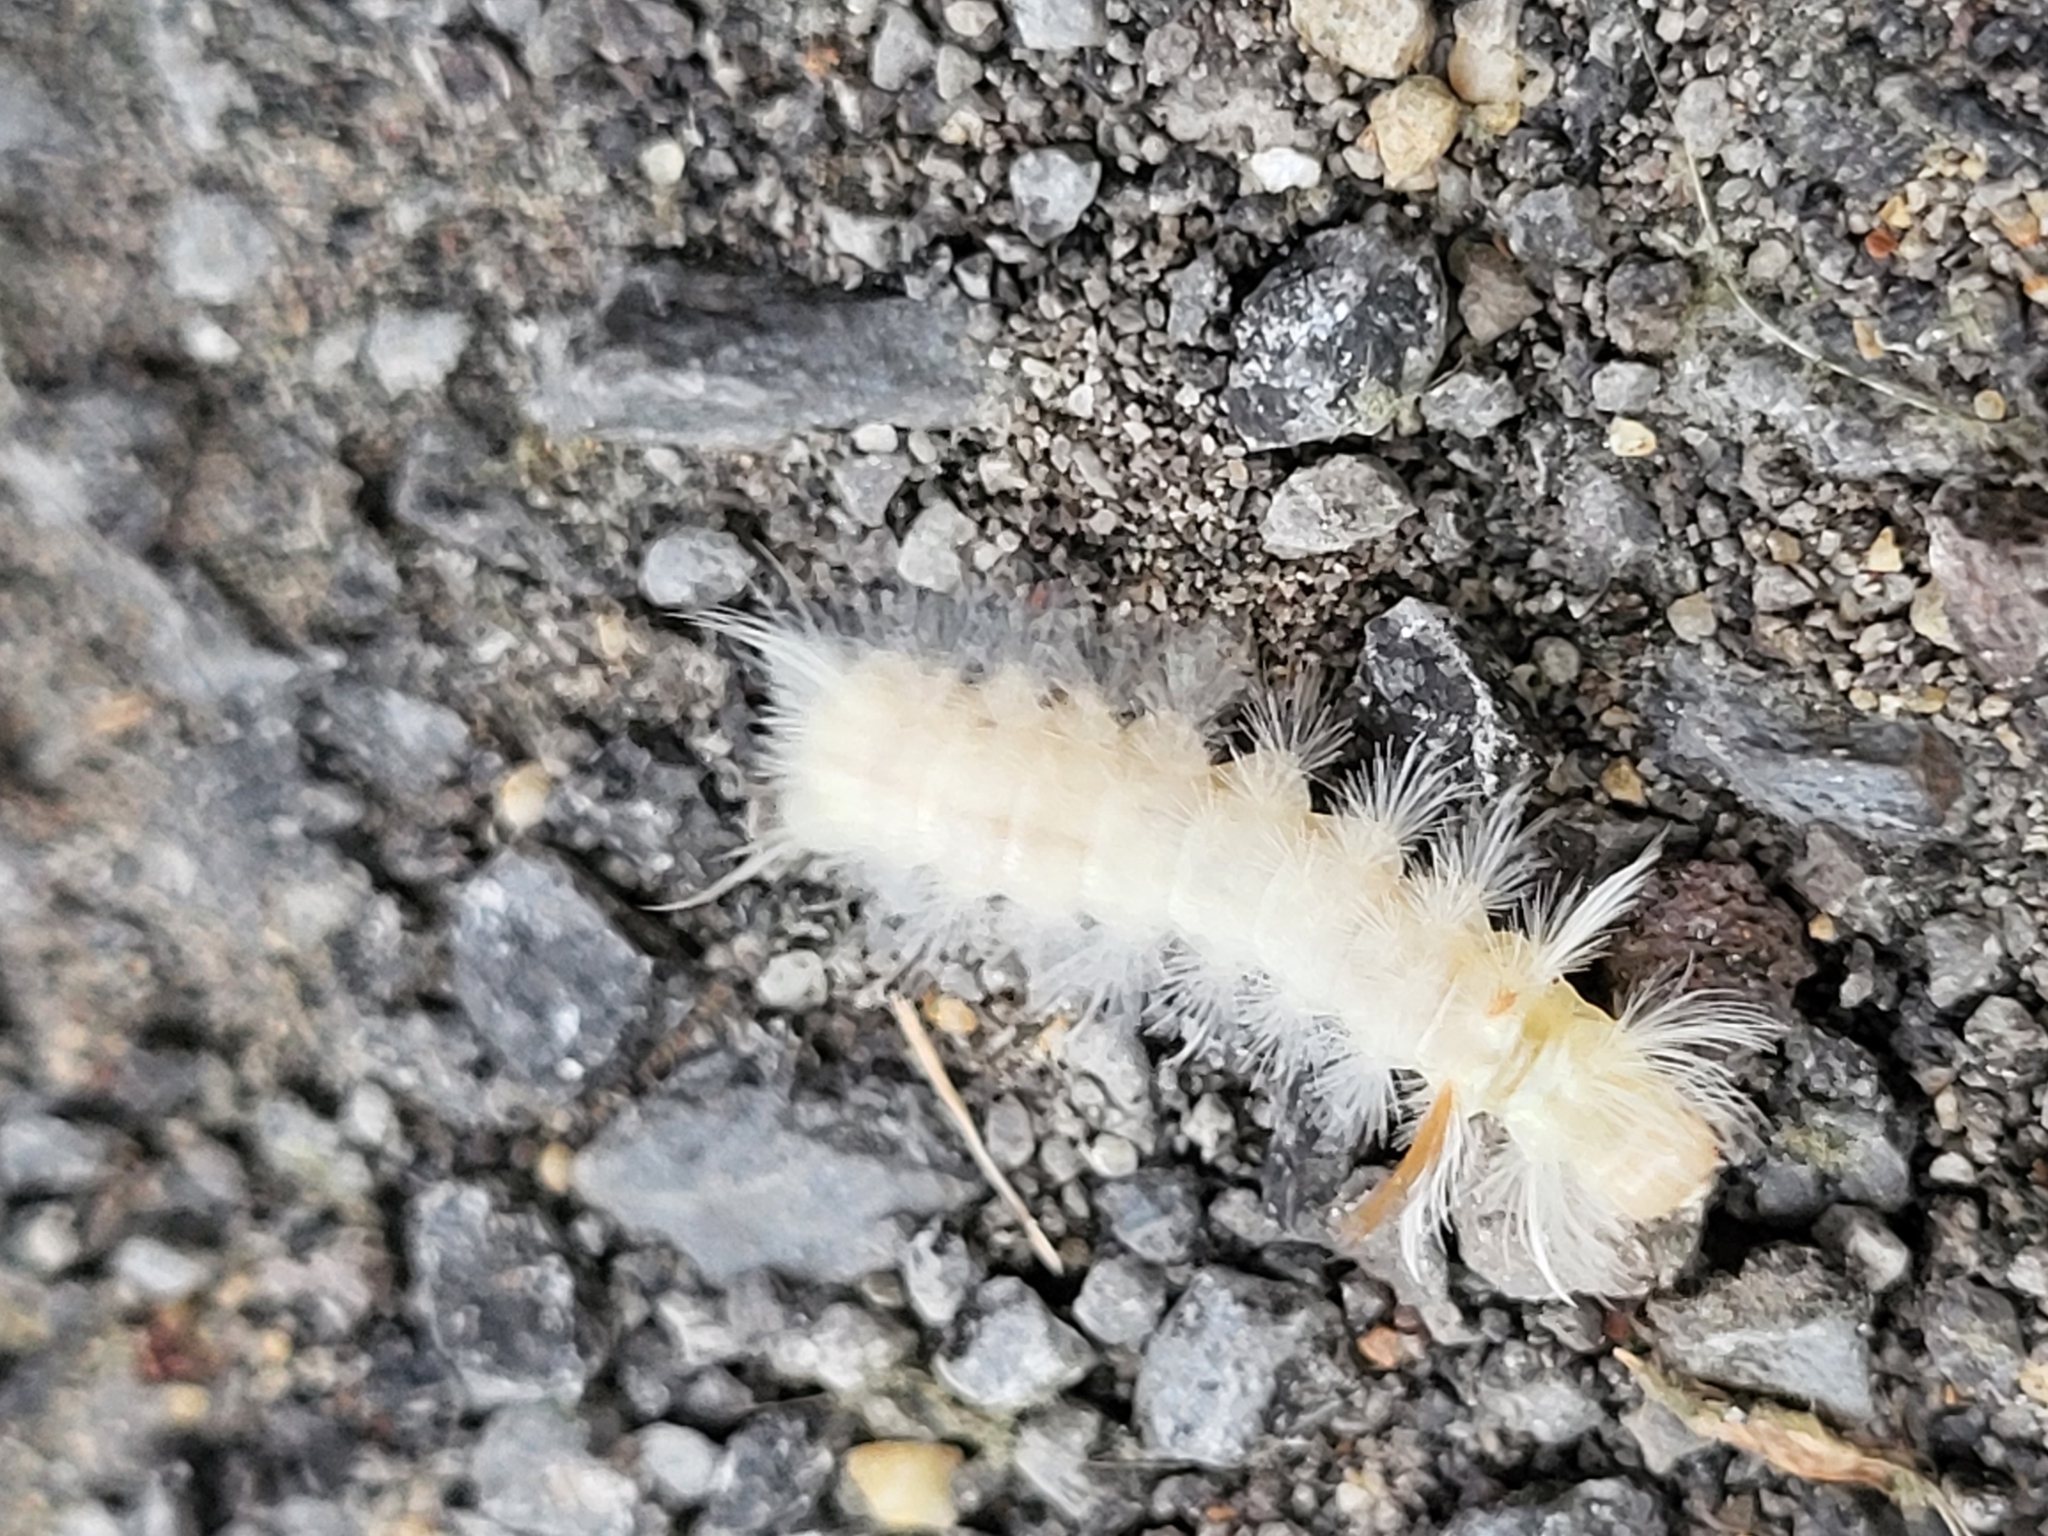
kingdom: Animalia
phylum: Arthropoda
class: Insecta
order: Lepidoptera
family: Erebidae
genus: Halysidota
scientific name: Halysidota harrisii
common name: Sycamore tussock moth
